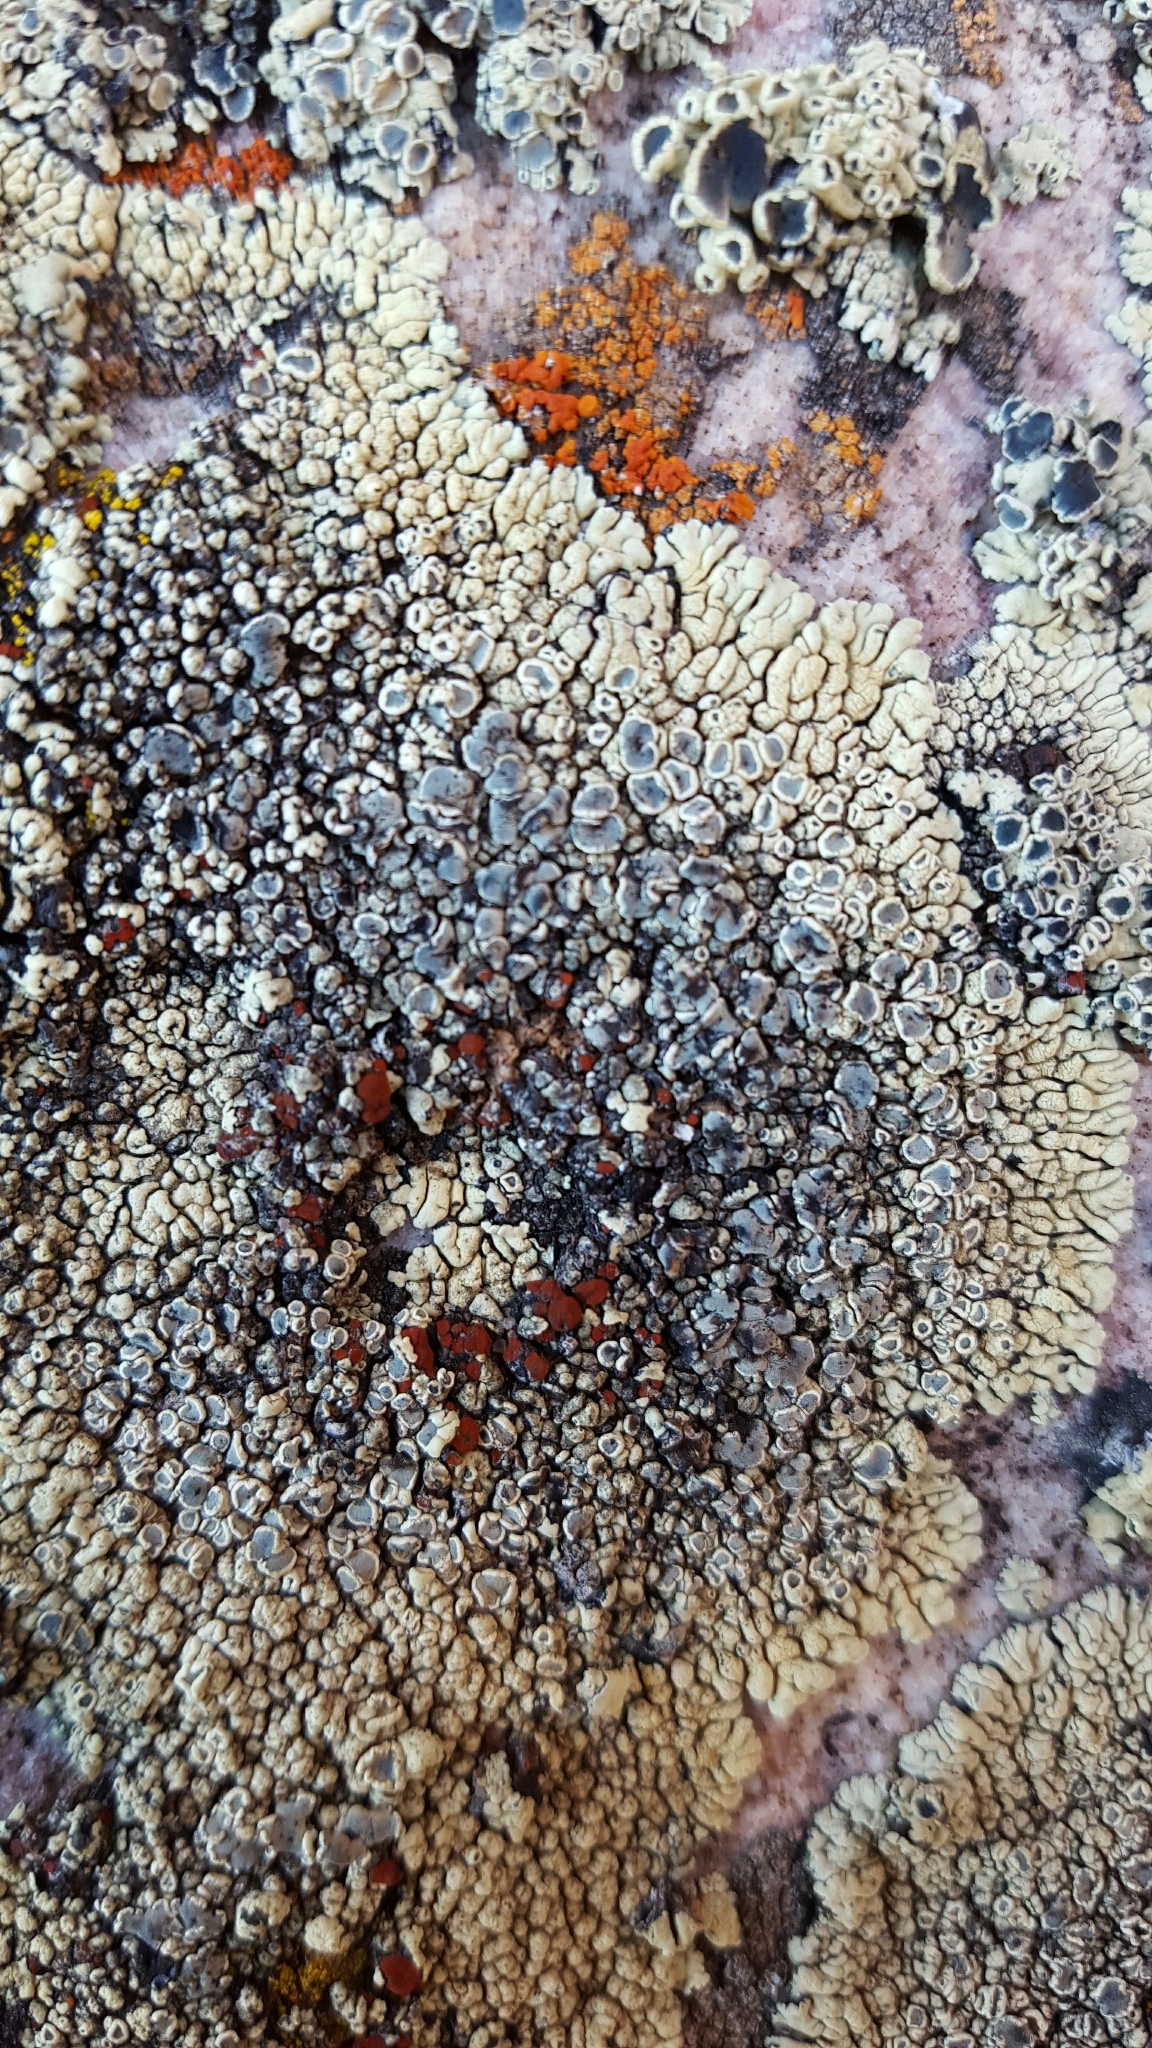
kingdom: Fungi
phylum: Ascomycota
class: Lecanoromycetes
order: Teloschistales
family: Teloschistaceae
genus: Erichansenia
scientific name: Erichansenia epithallina
